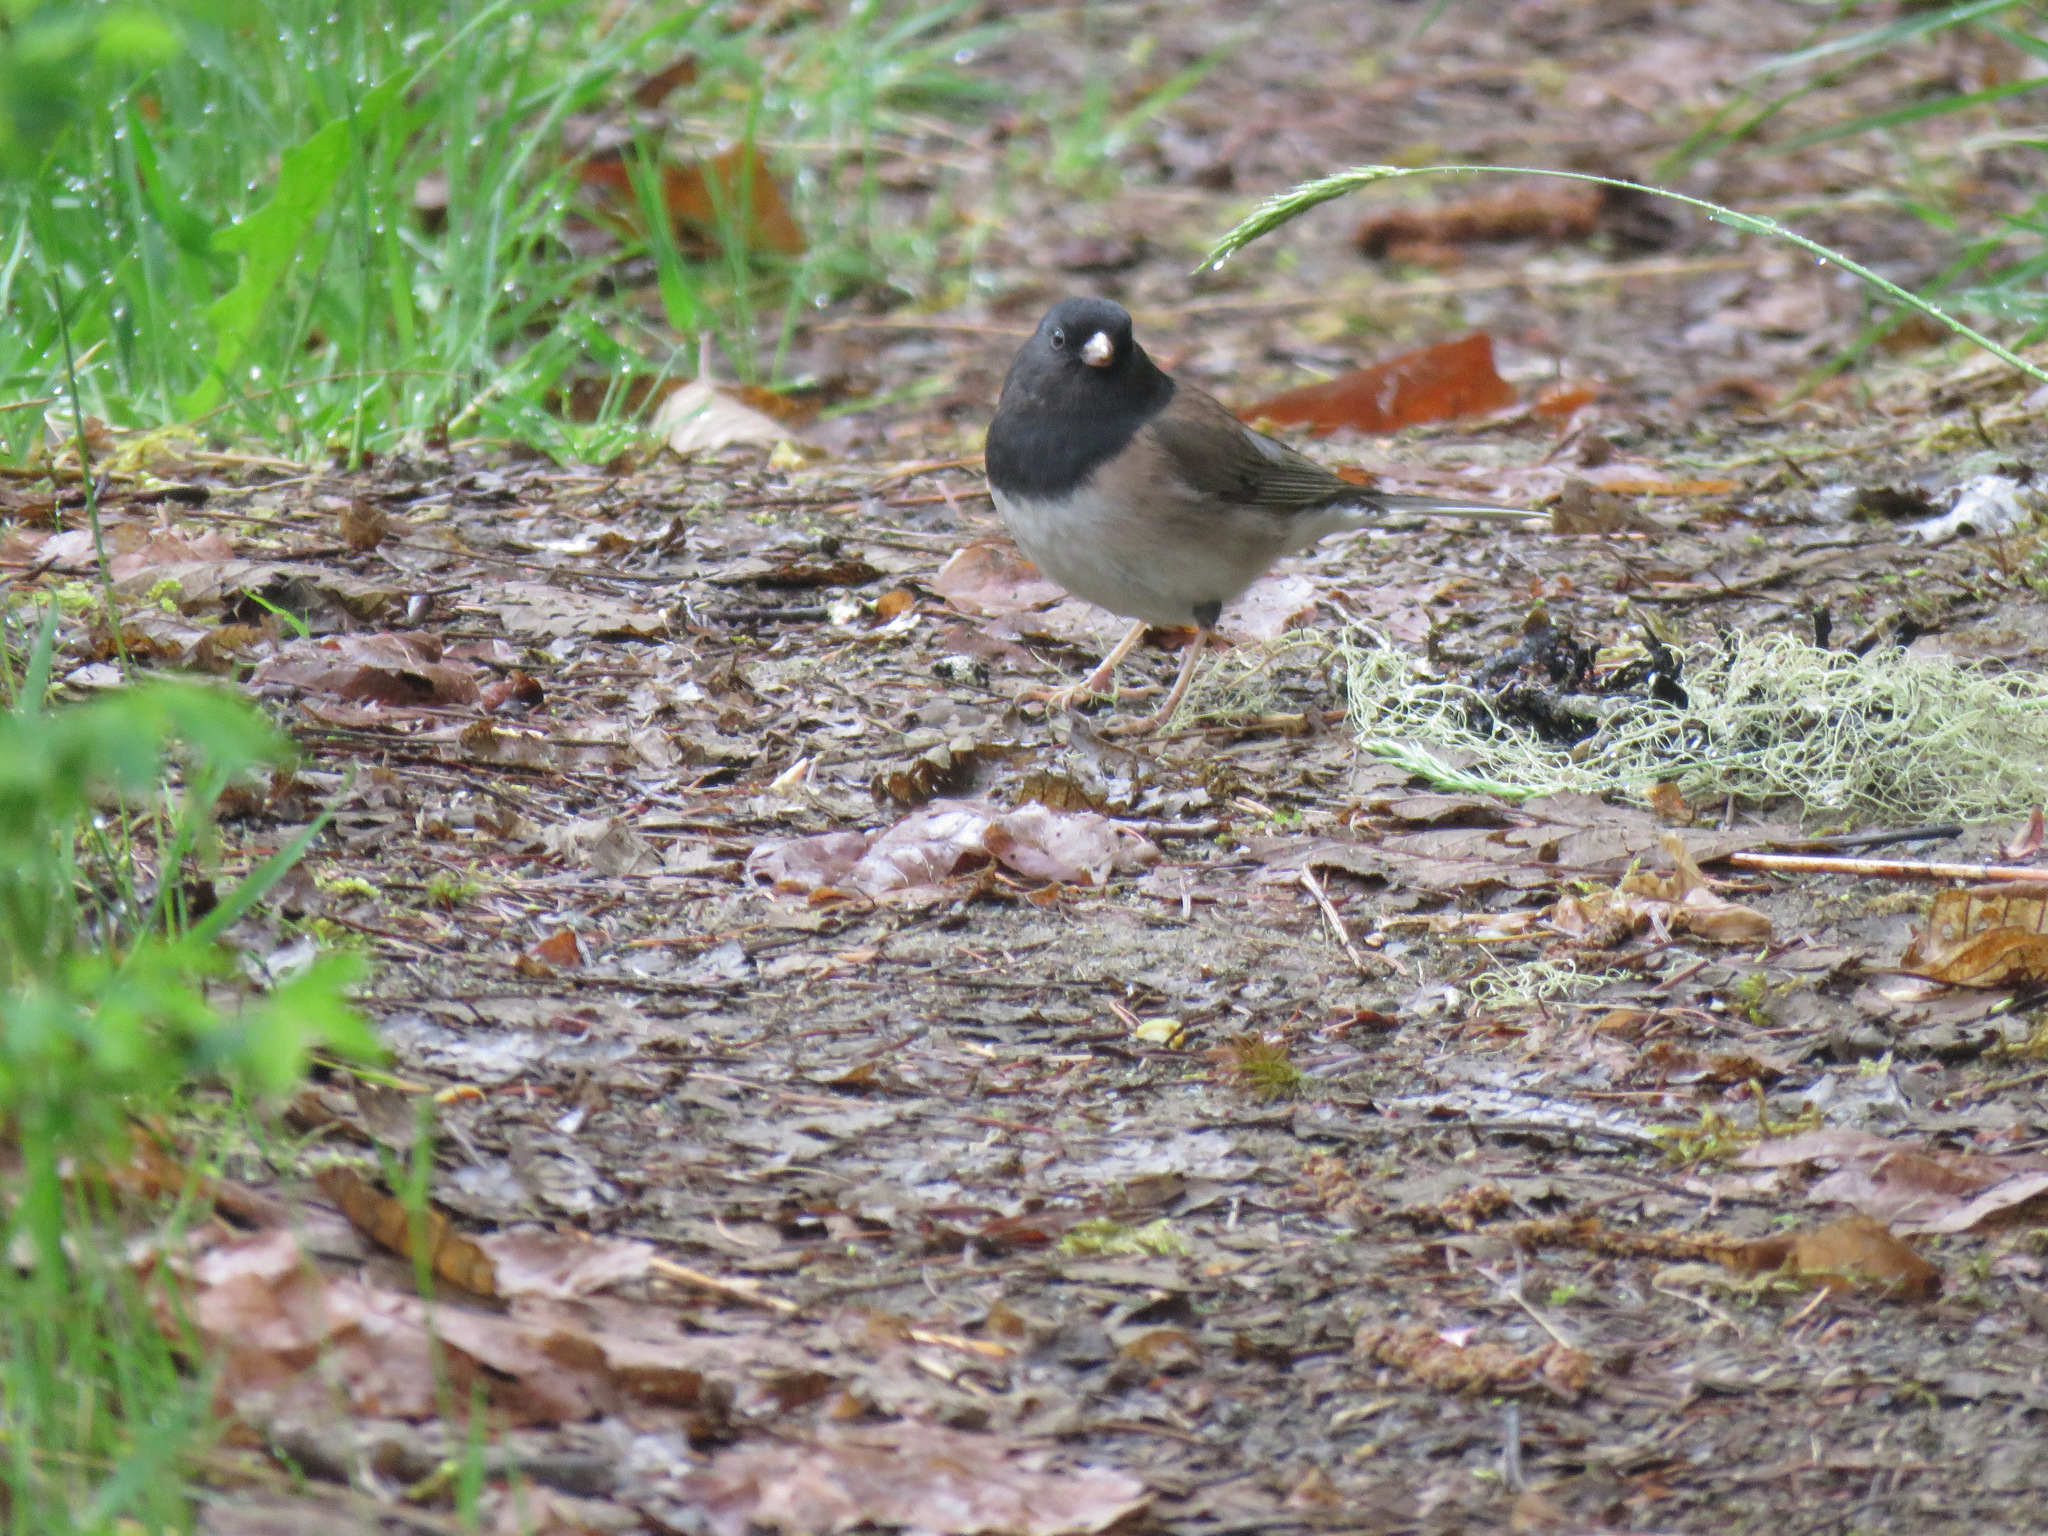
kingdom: Animalia
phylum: Chordata
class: Aves
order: Passeriformes
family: Passerellidae
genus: Junco
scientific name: Junco hyemalis
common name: Dark-eyed junco
